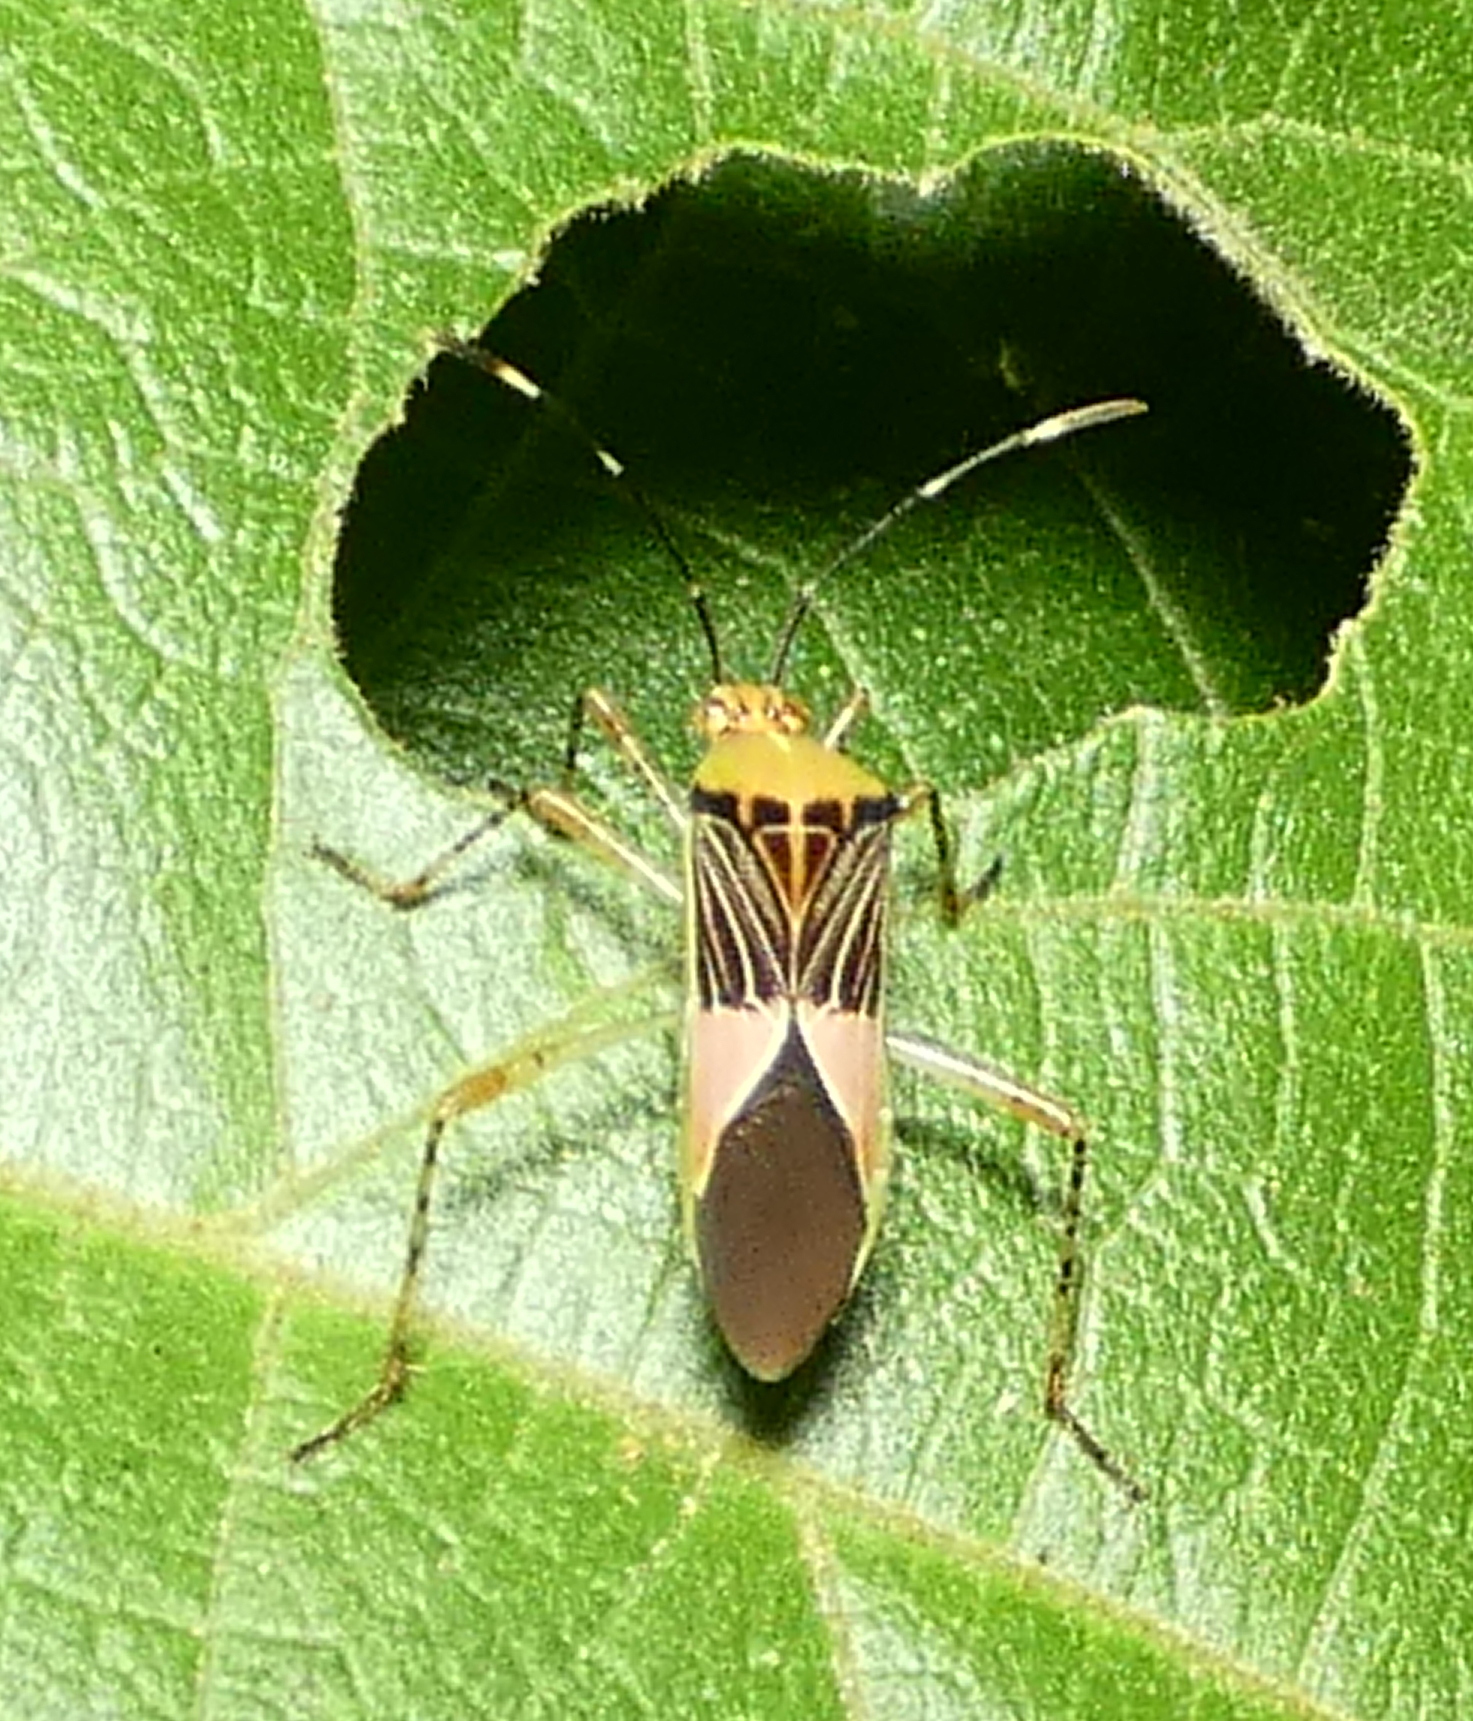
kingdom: Animalia
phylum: Arthropoda
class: Insecta
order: Hemiptera
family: Coreidae
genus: Hypselonotus
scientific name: Hypselonotus fulvus
